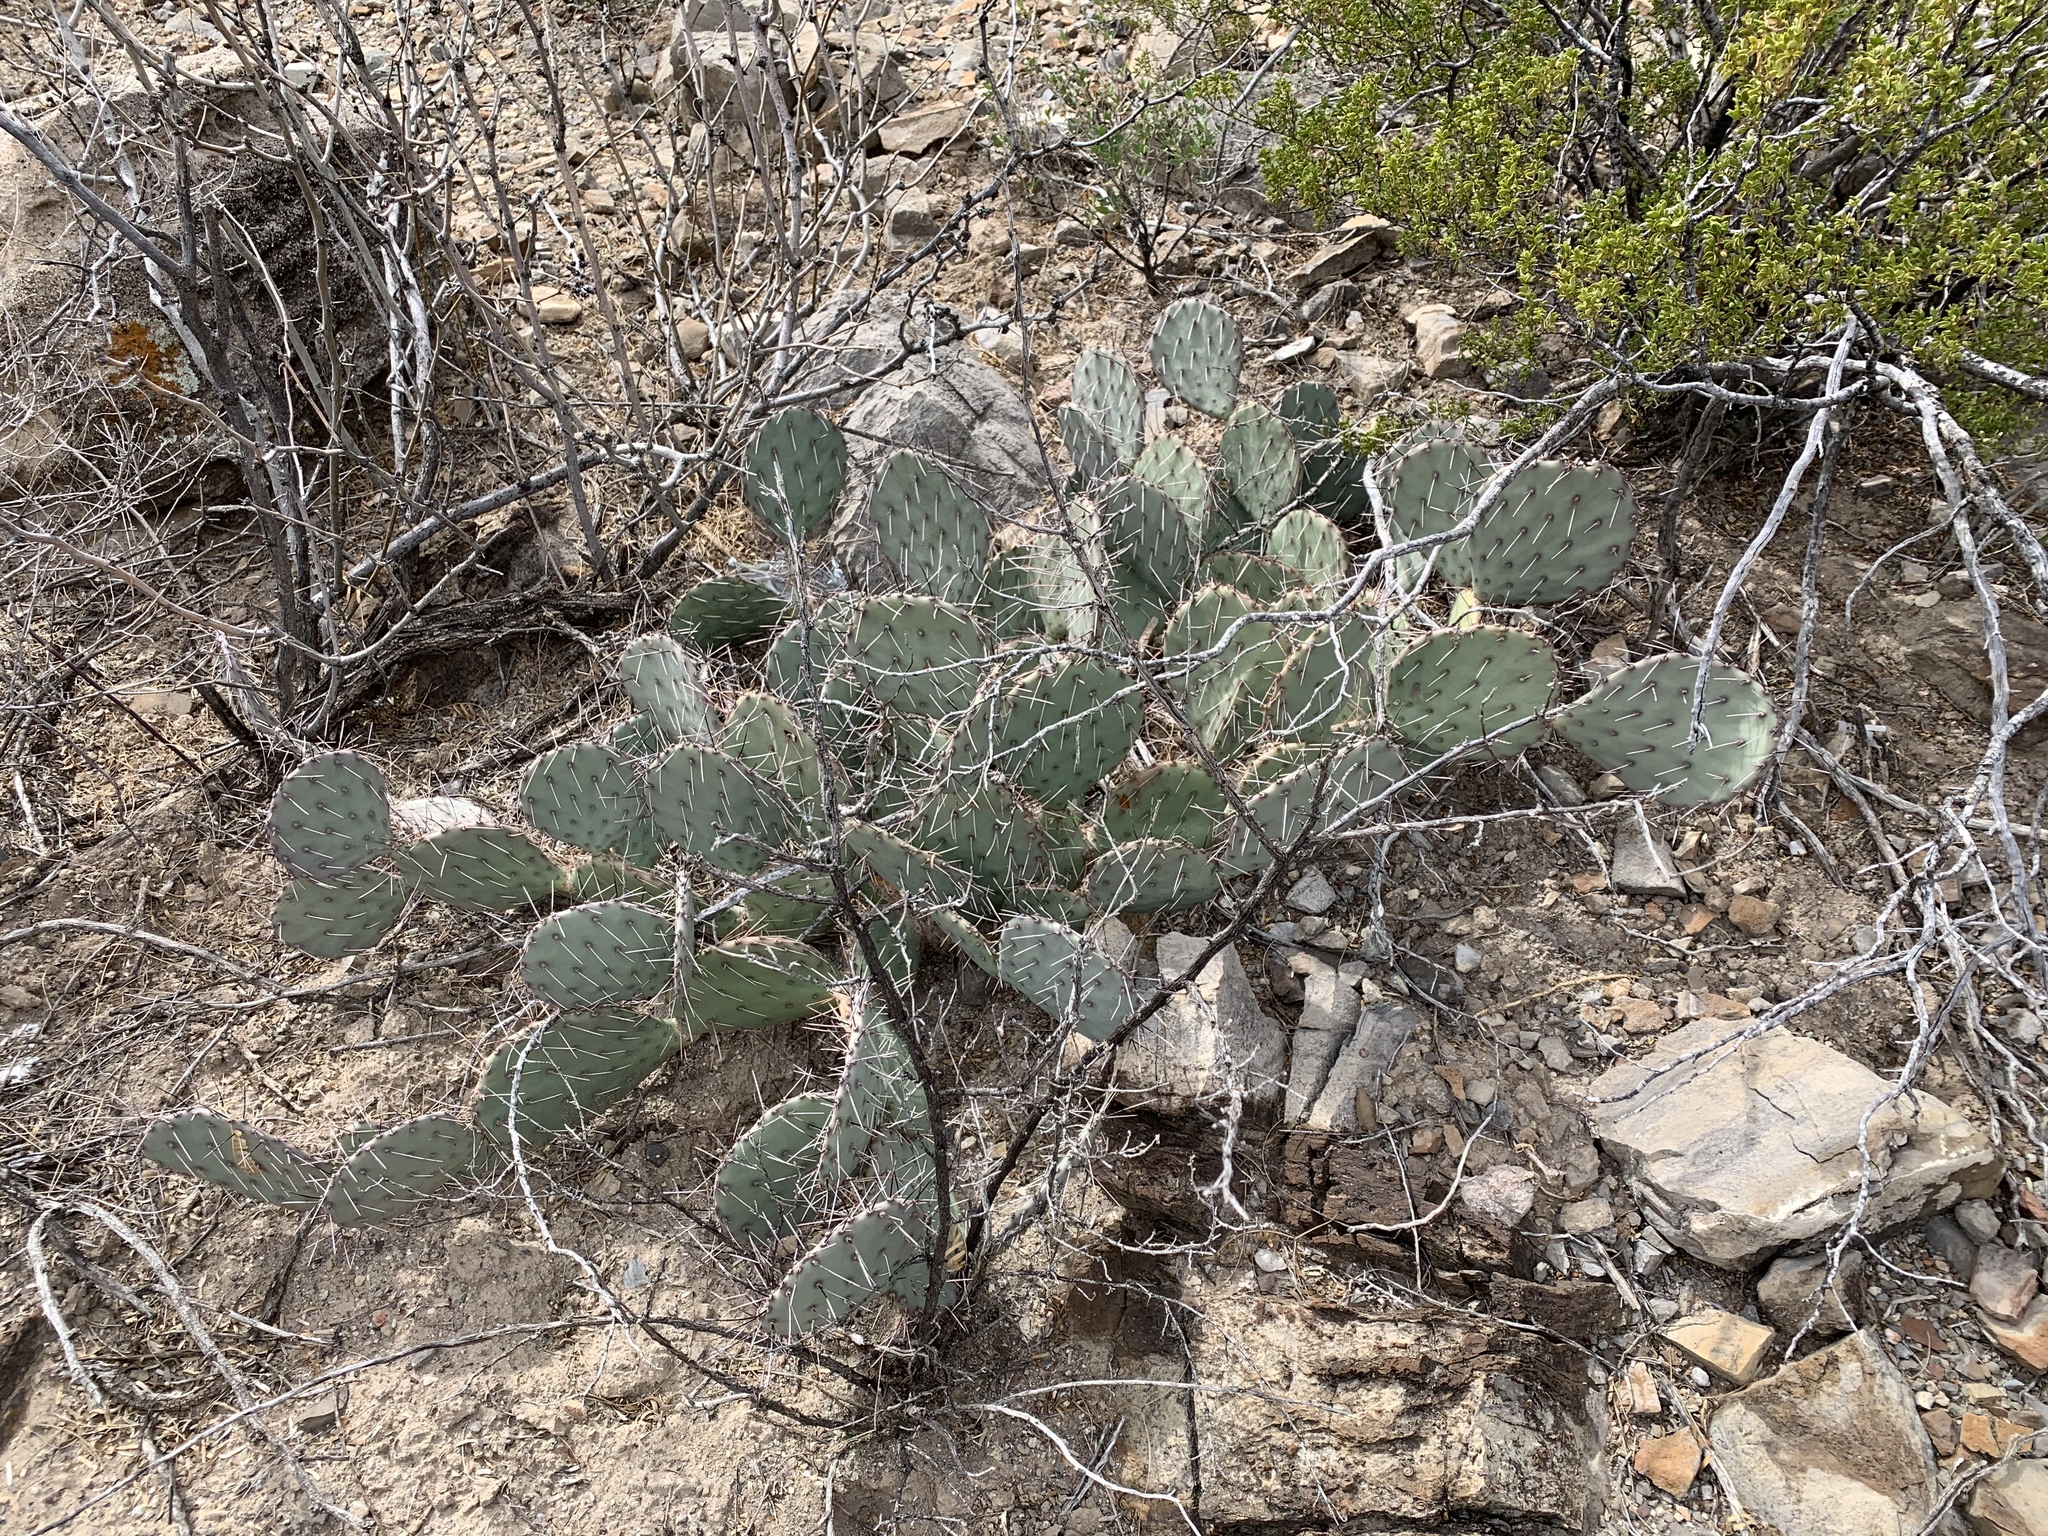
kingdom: Plantae
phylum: Tracheophyta
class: Magnoliopsida
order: Caryophyllales
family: Cactaceae
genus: Opuntia
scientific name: Opuntia phaeacantha
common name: New mexico prickly-pear
